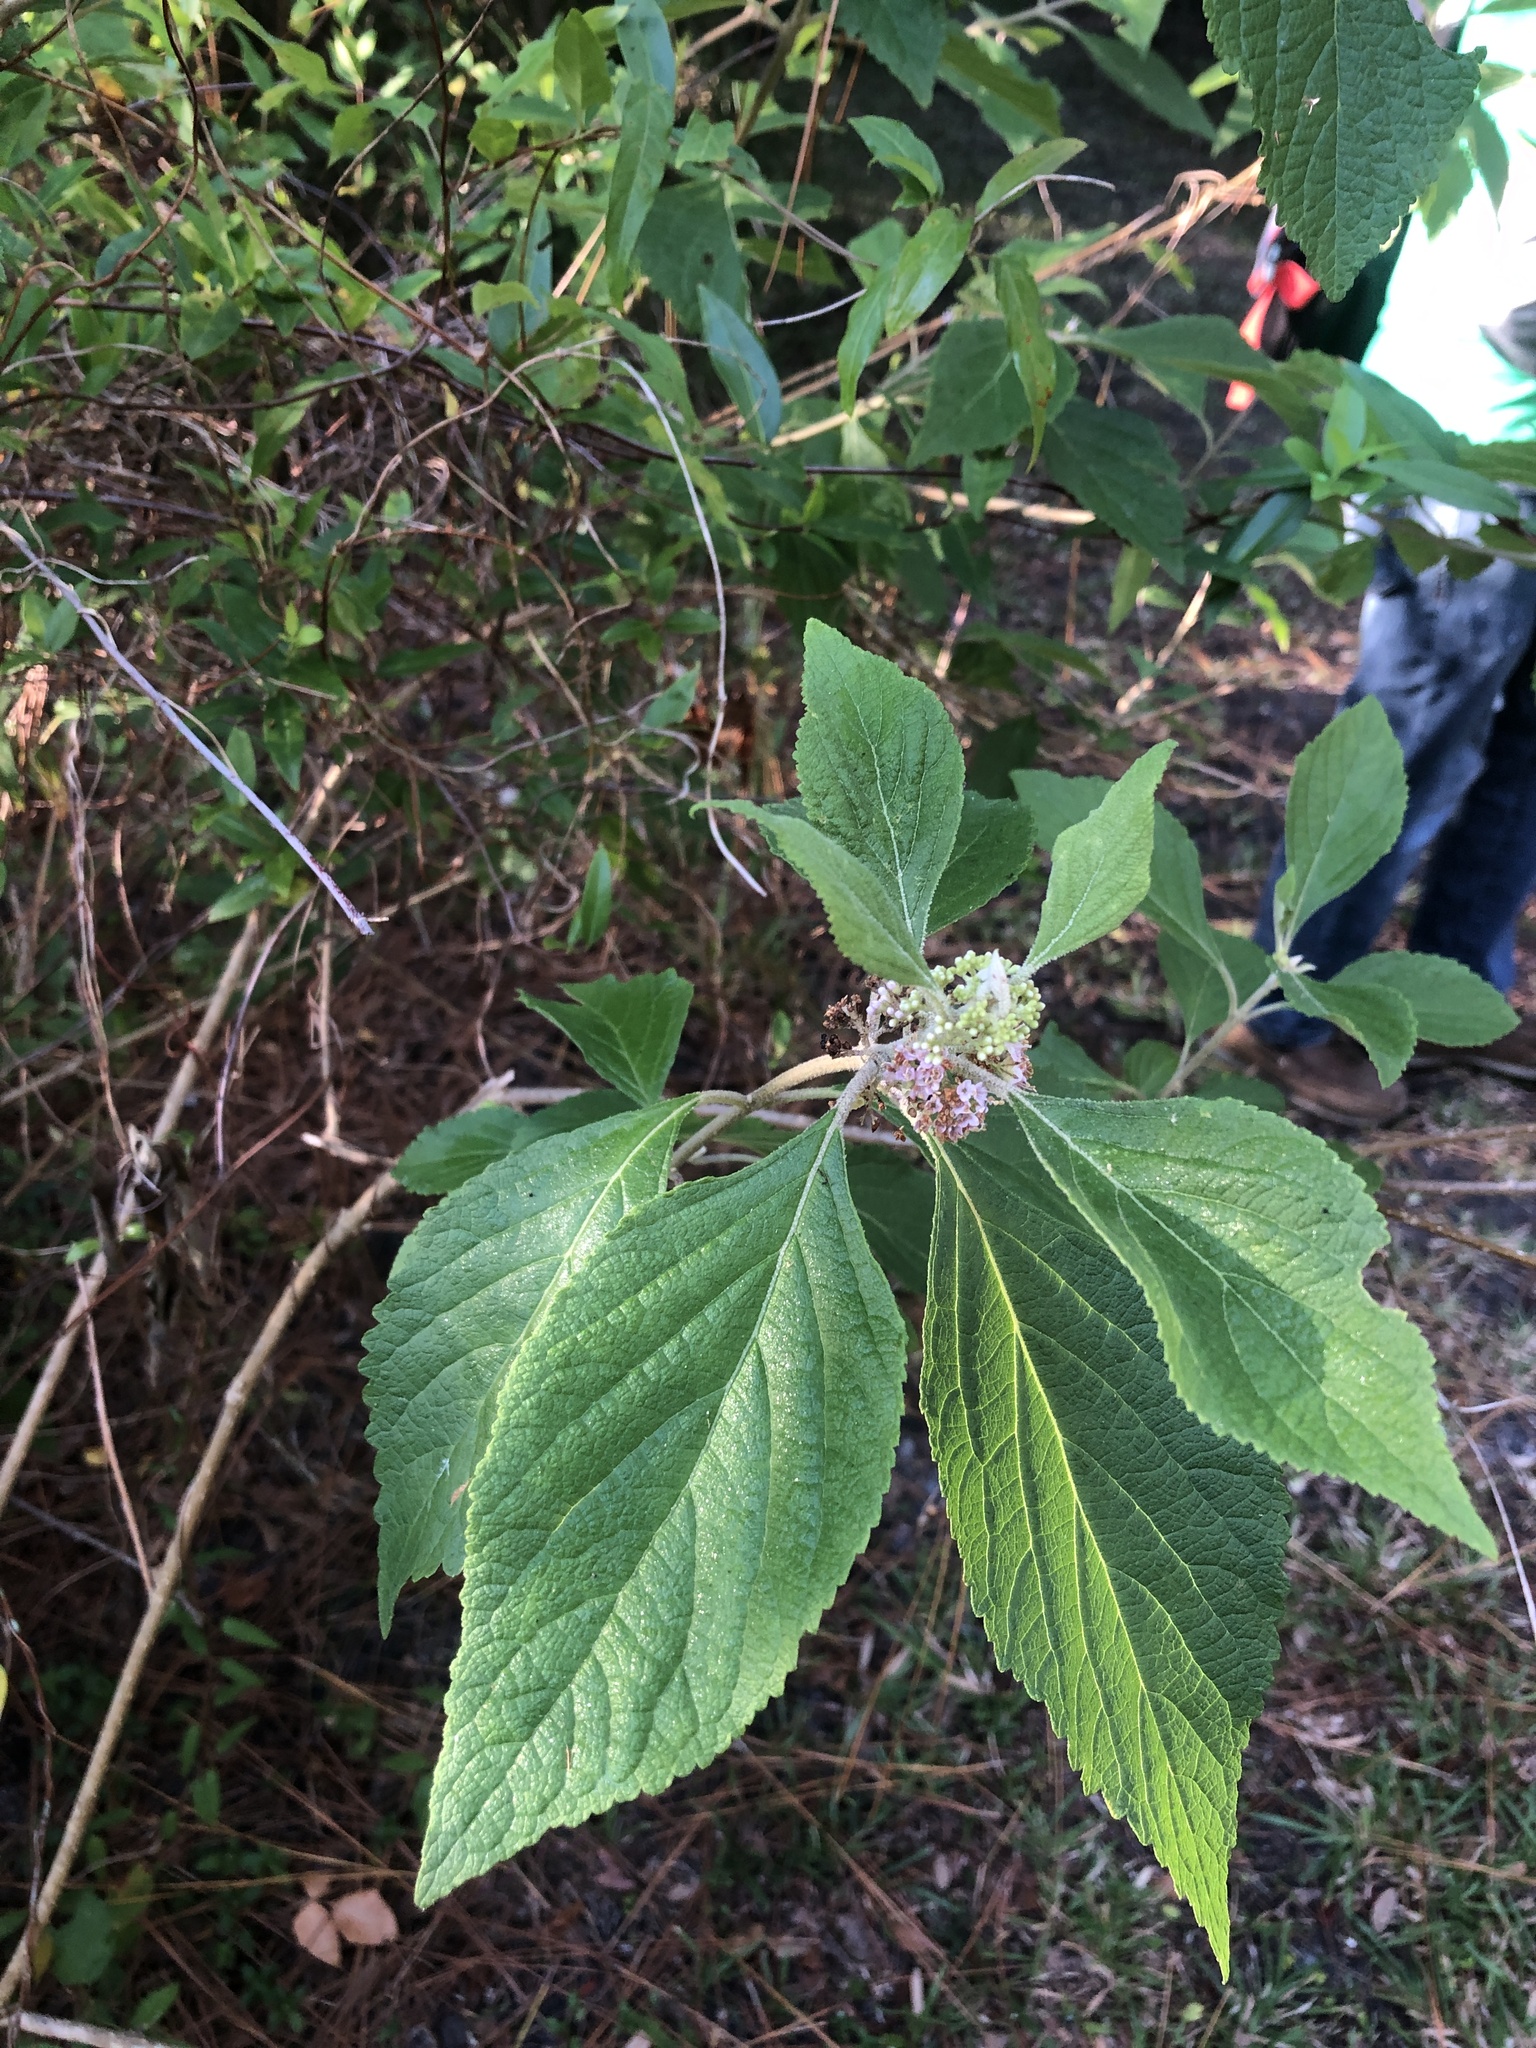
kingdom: Plantae
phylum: Tracheophyta
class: Magnoliopsida
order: Lamiales
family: Lamiaceae
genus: Callicarpa
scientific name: Callicarpa americana
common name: American beautyberry
